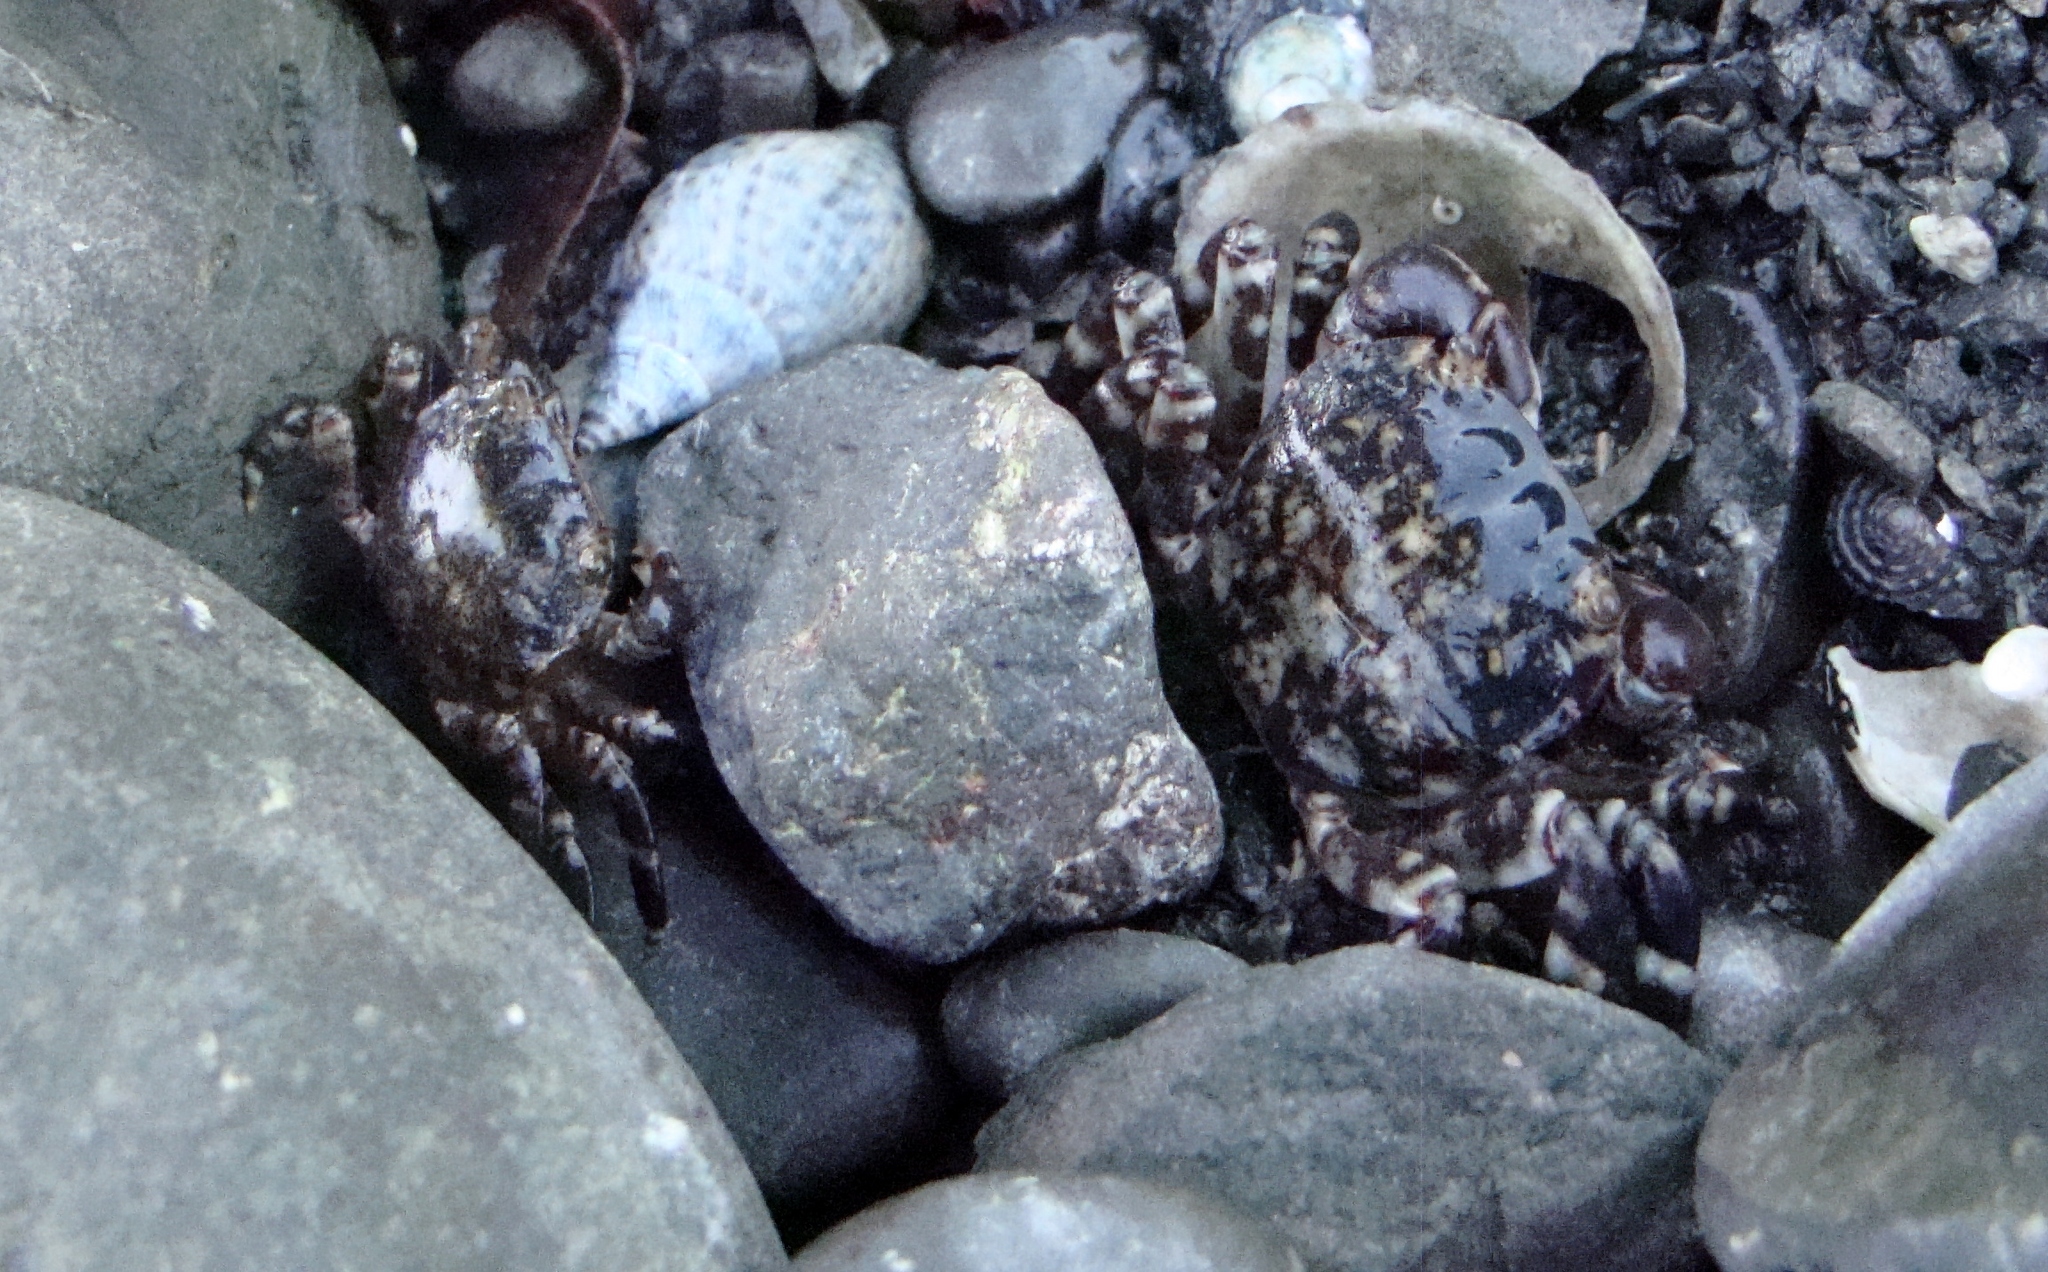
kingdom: Animalia
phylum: Arthropoda
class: Malacostraca
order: Decapoda
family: Varunidae
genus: Hemigrapsus
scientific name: Hemigrapsus sexdentatus
